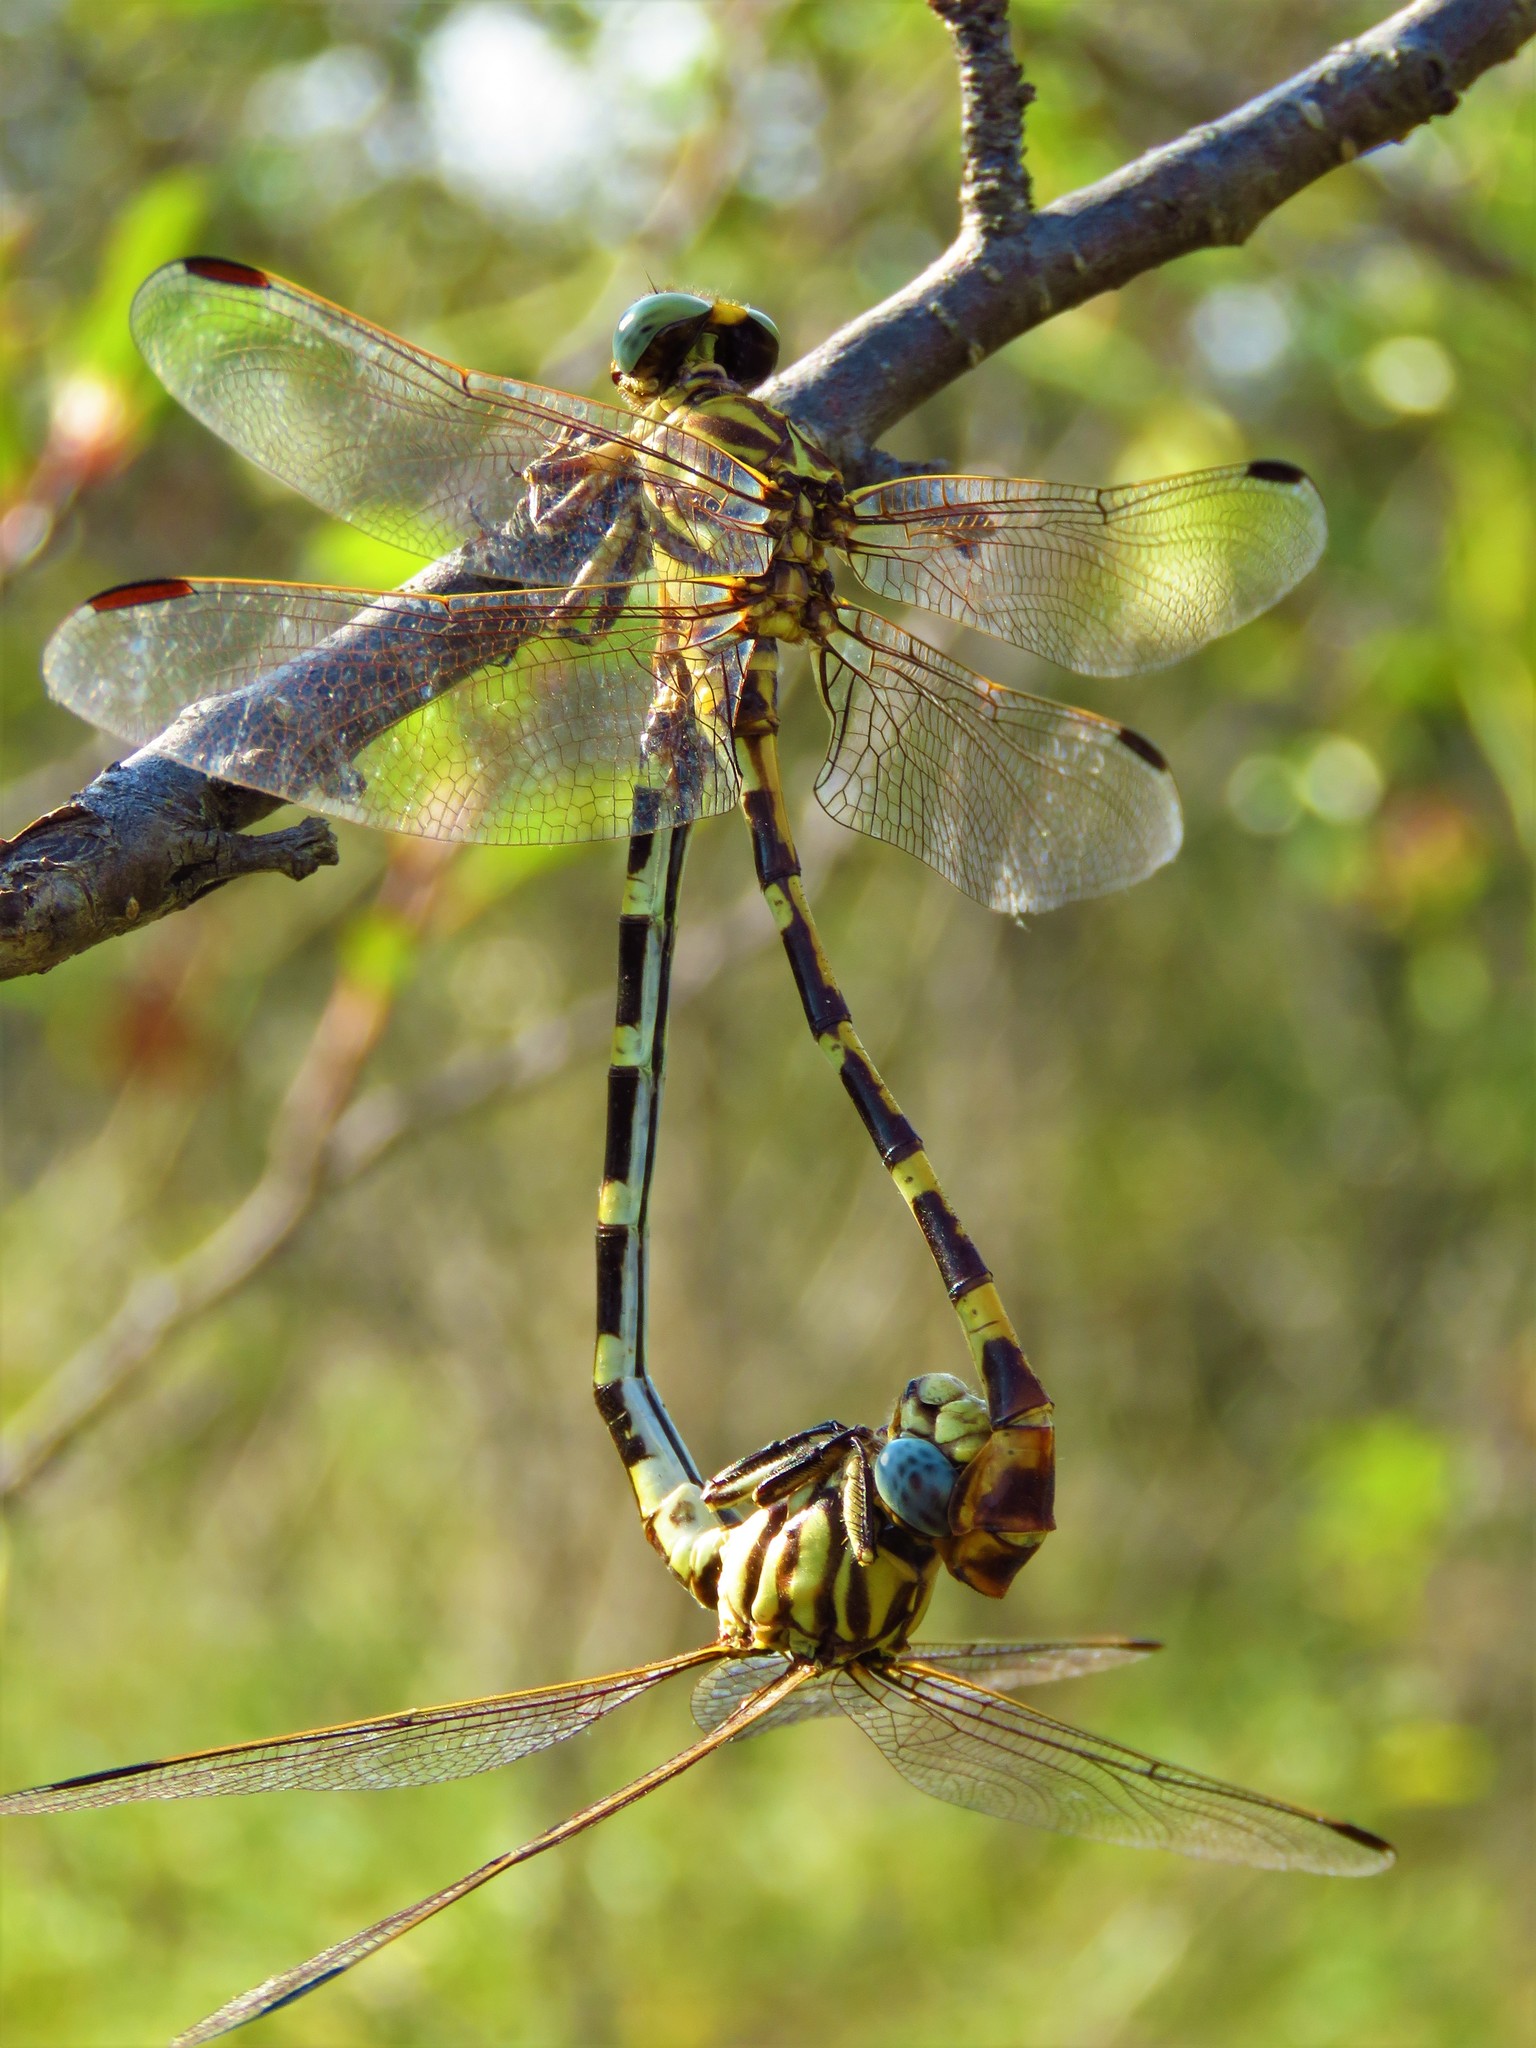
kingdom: Animalia
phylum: Arthropoda
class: Insecta
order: Odonata
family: Gomphidae
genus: Phyllogomphoides
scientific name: Phyllogomphoides stigmatus
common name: Four-striped leaftail
